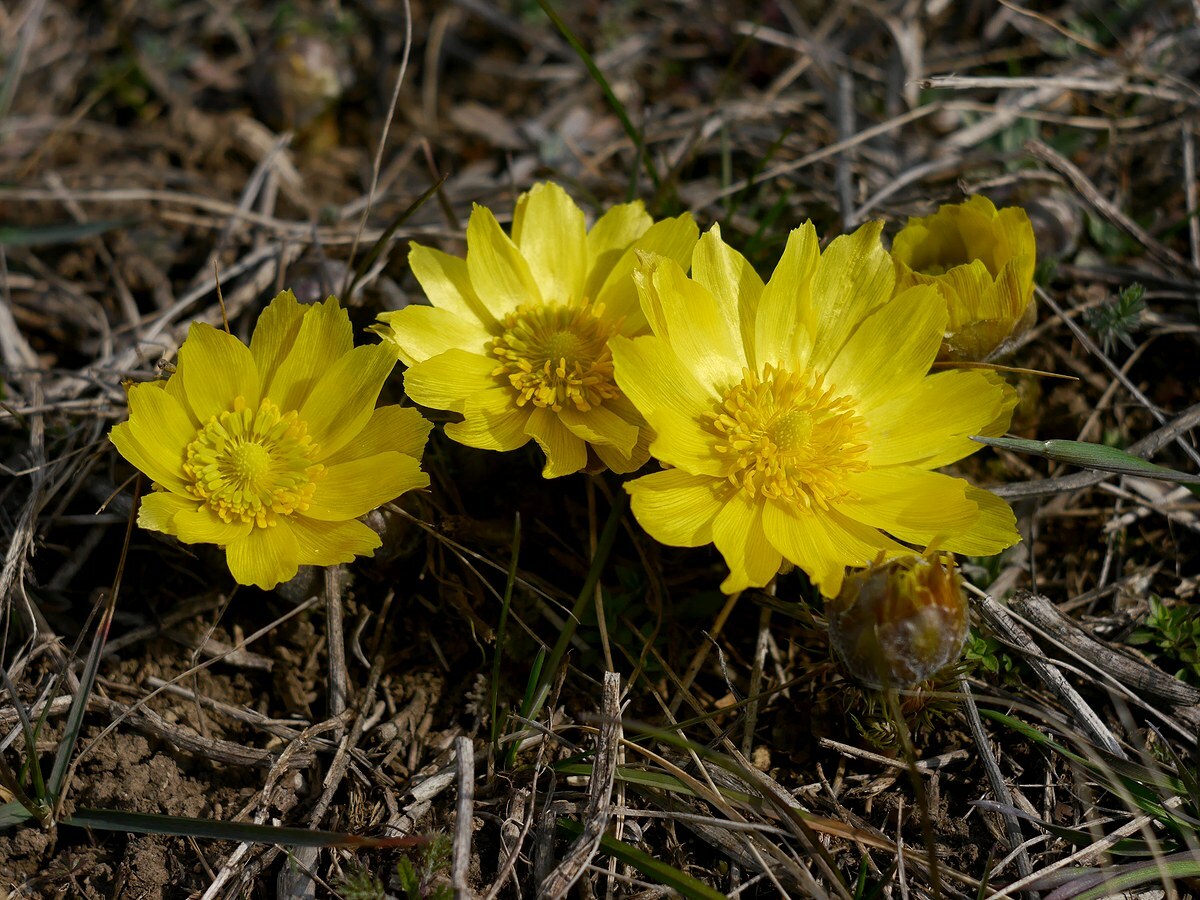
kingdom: Plantae
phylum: Tracheophyta
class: Magnoliopsida
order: Ranunculales
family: Ranunculaceae
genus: Adonis
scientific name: Adonis vernalis
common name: Yellow pheasants-eye
